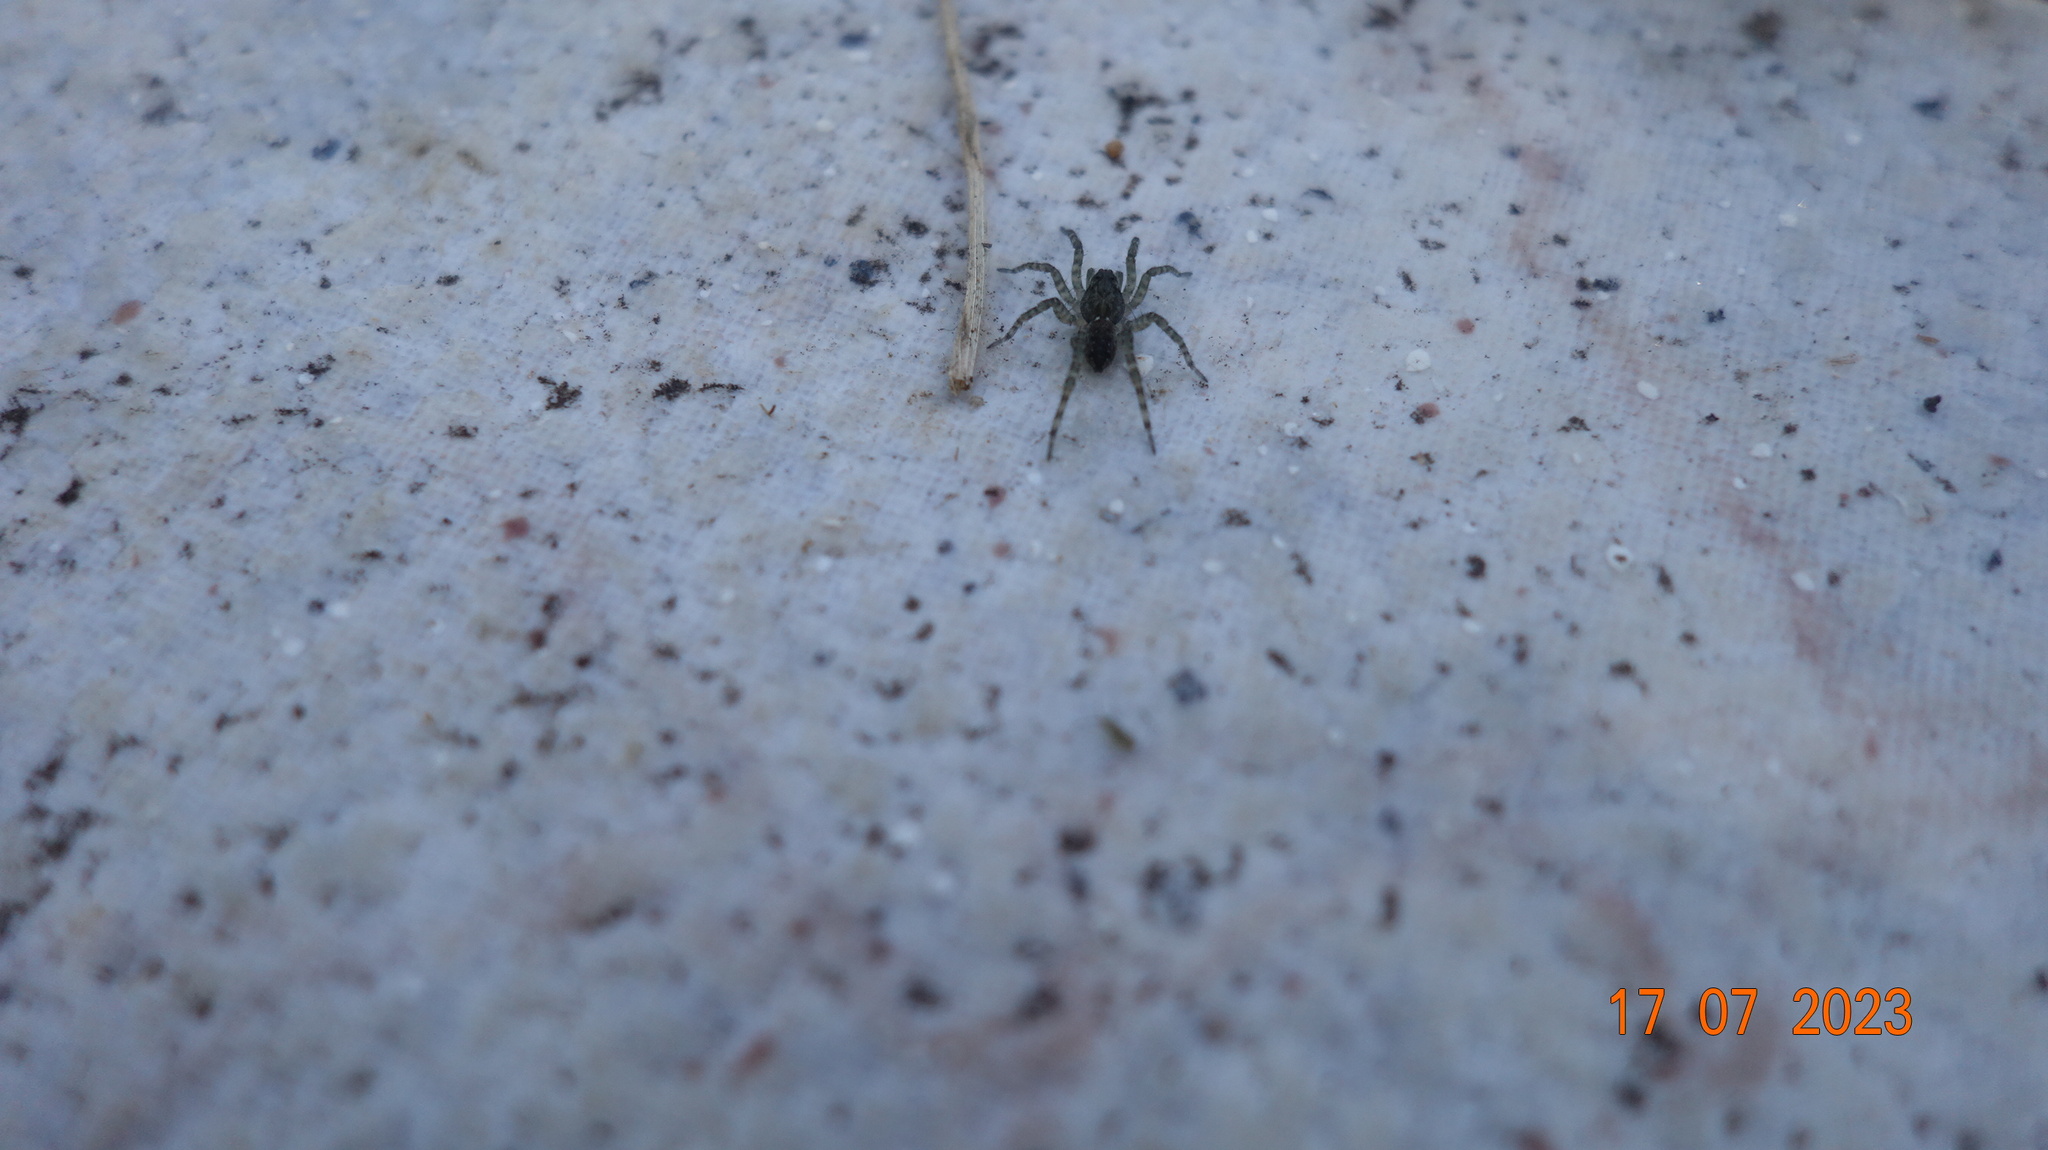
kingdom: Animalia
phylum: Arthropoda
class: Arachnida
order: Araneae
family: Lycosidae
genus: Paratrochosina
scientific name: Paratrochosina amica
